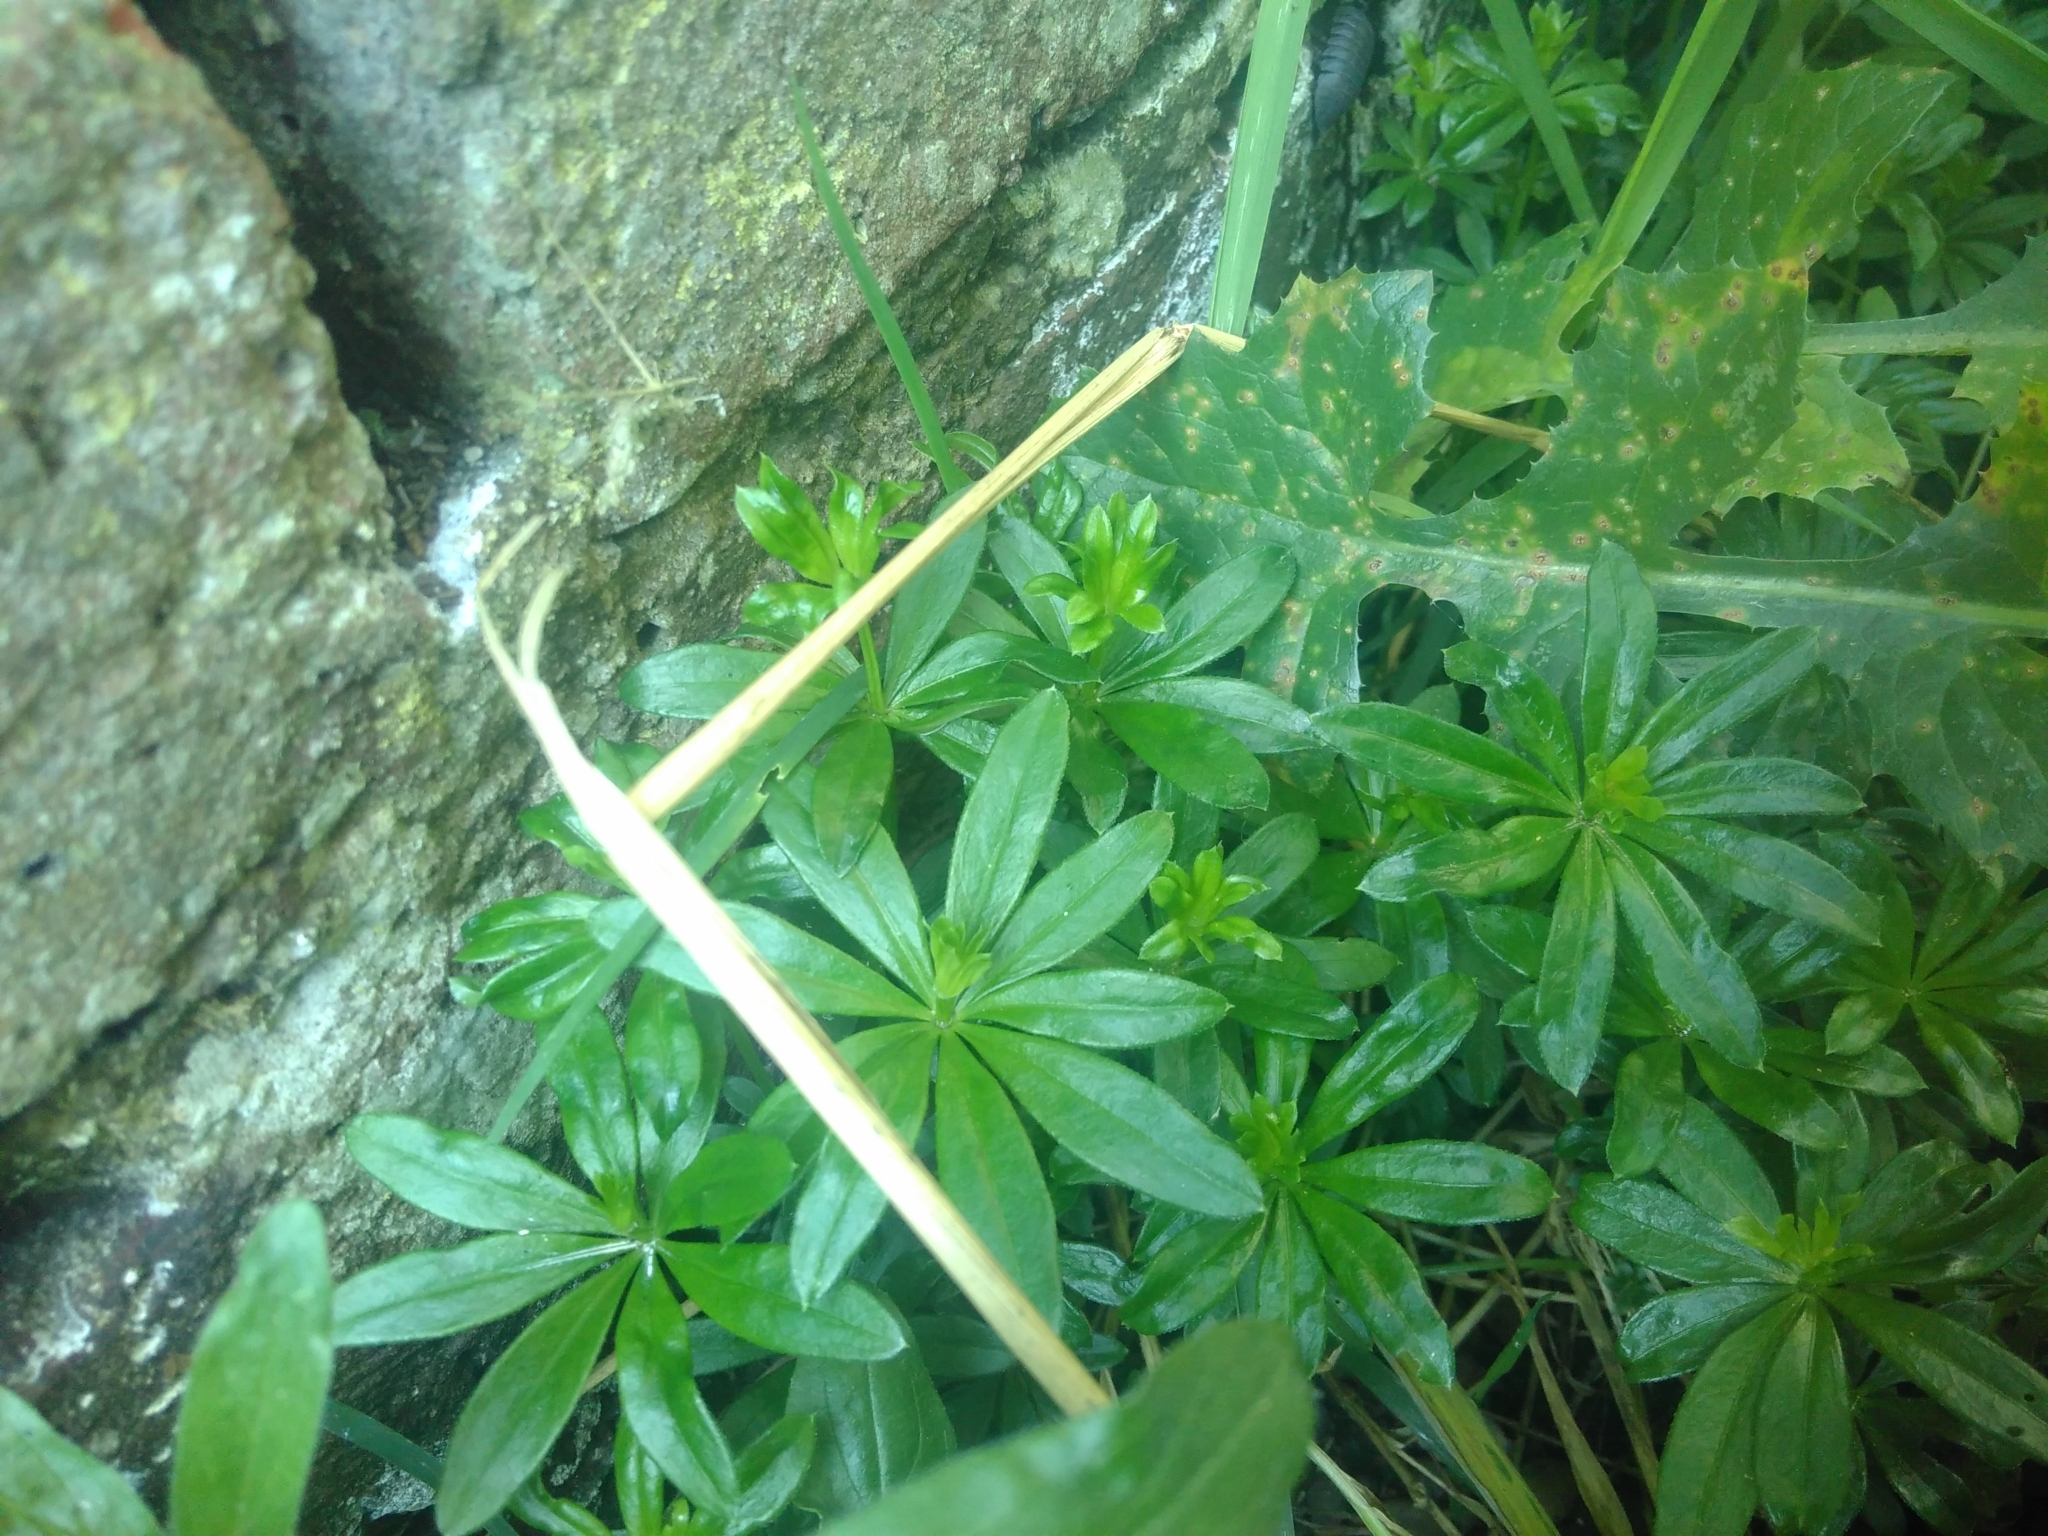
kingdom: Plantae
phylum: Tracheophyta
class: Magnoliopsida
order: Gentianales
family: Rubiaceae
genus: Galium
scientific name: Galium odoratum
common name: Sweet woodruff
